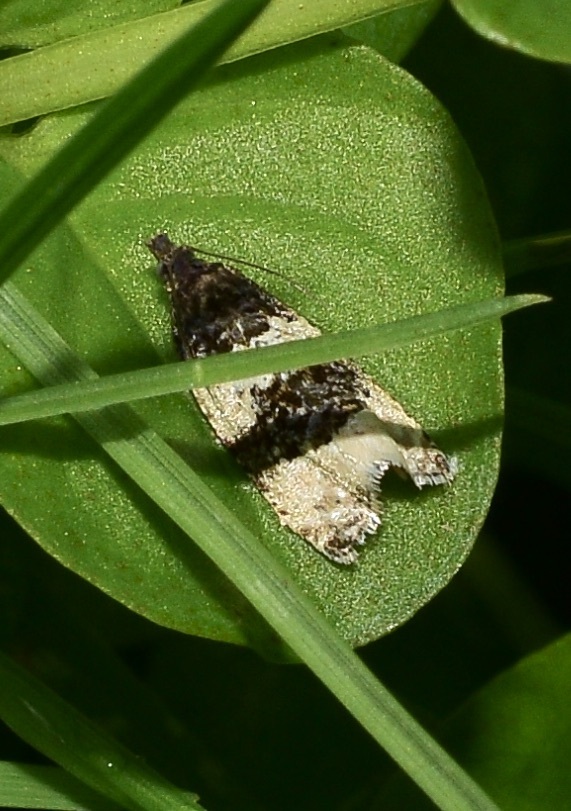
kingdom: Animalia
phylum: Arthropoda
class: Insecta
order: Lepidoptera
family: Tortricidae
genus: Olethreutes
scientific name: Olethreutes bipartitana
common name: Divided olethreutes moth
